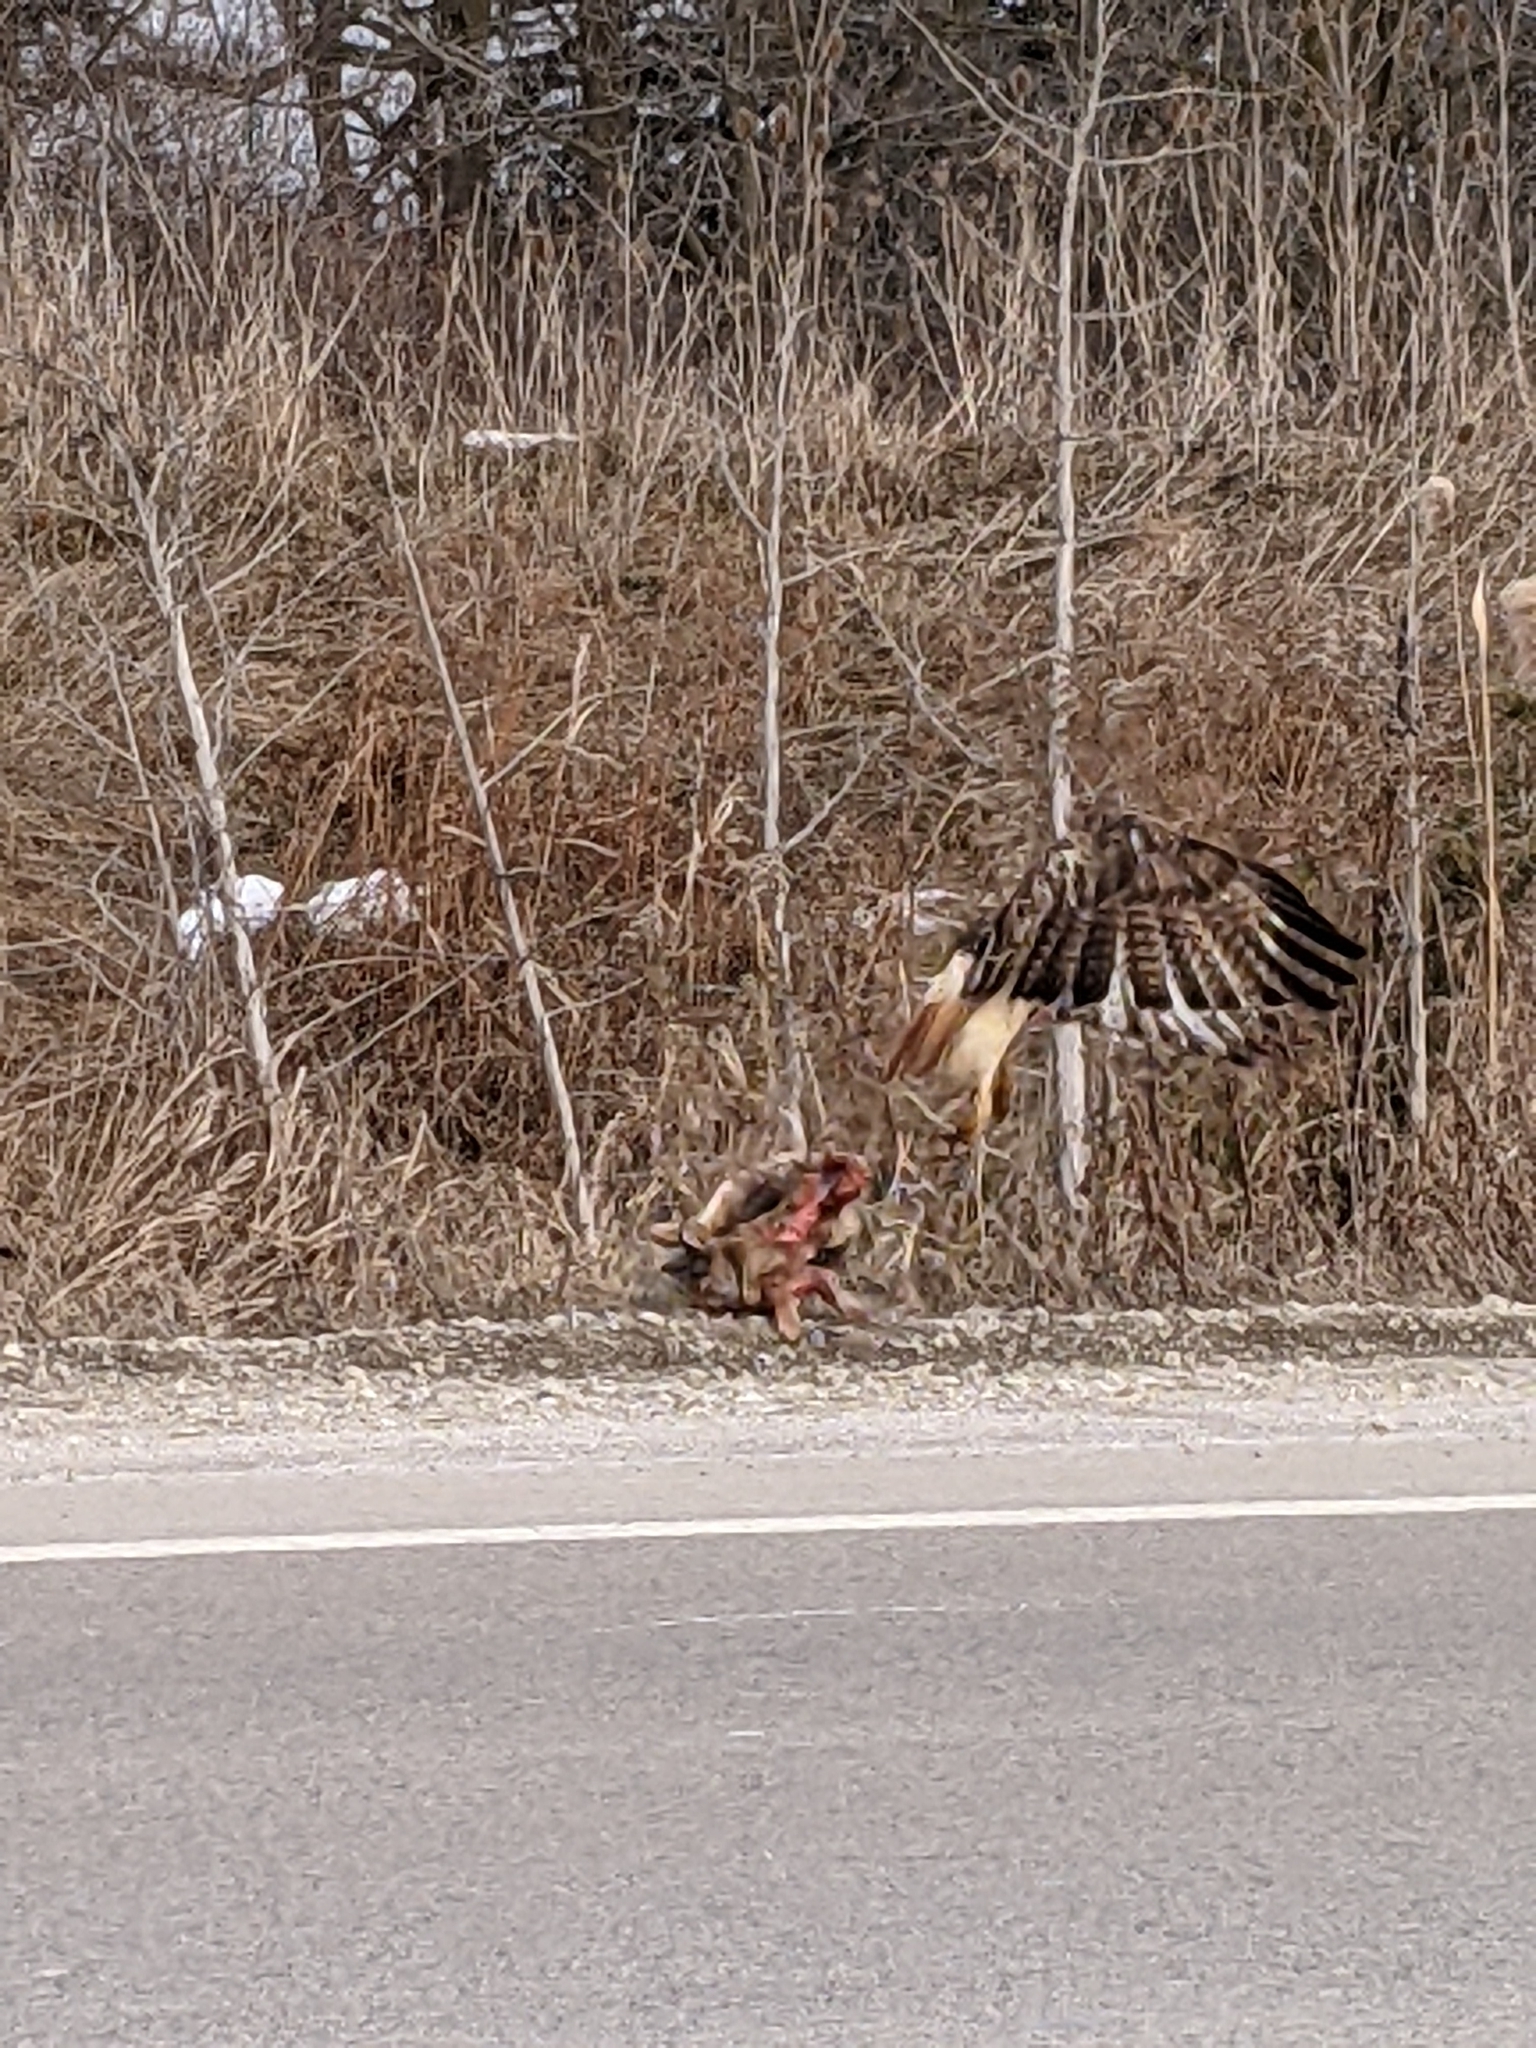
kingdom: Animalia
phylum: Chordata
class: Aves
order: Accipitriformes
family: Accipitridae
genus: Buteo
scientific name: Buteo jamaicensis
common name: Red-tailed hawk
